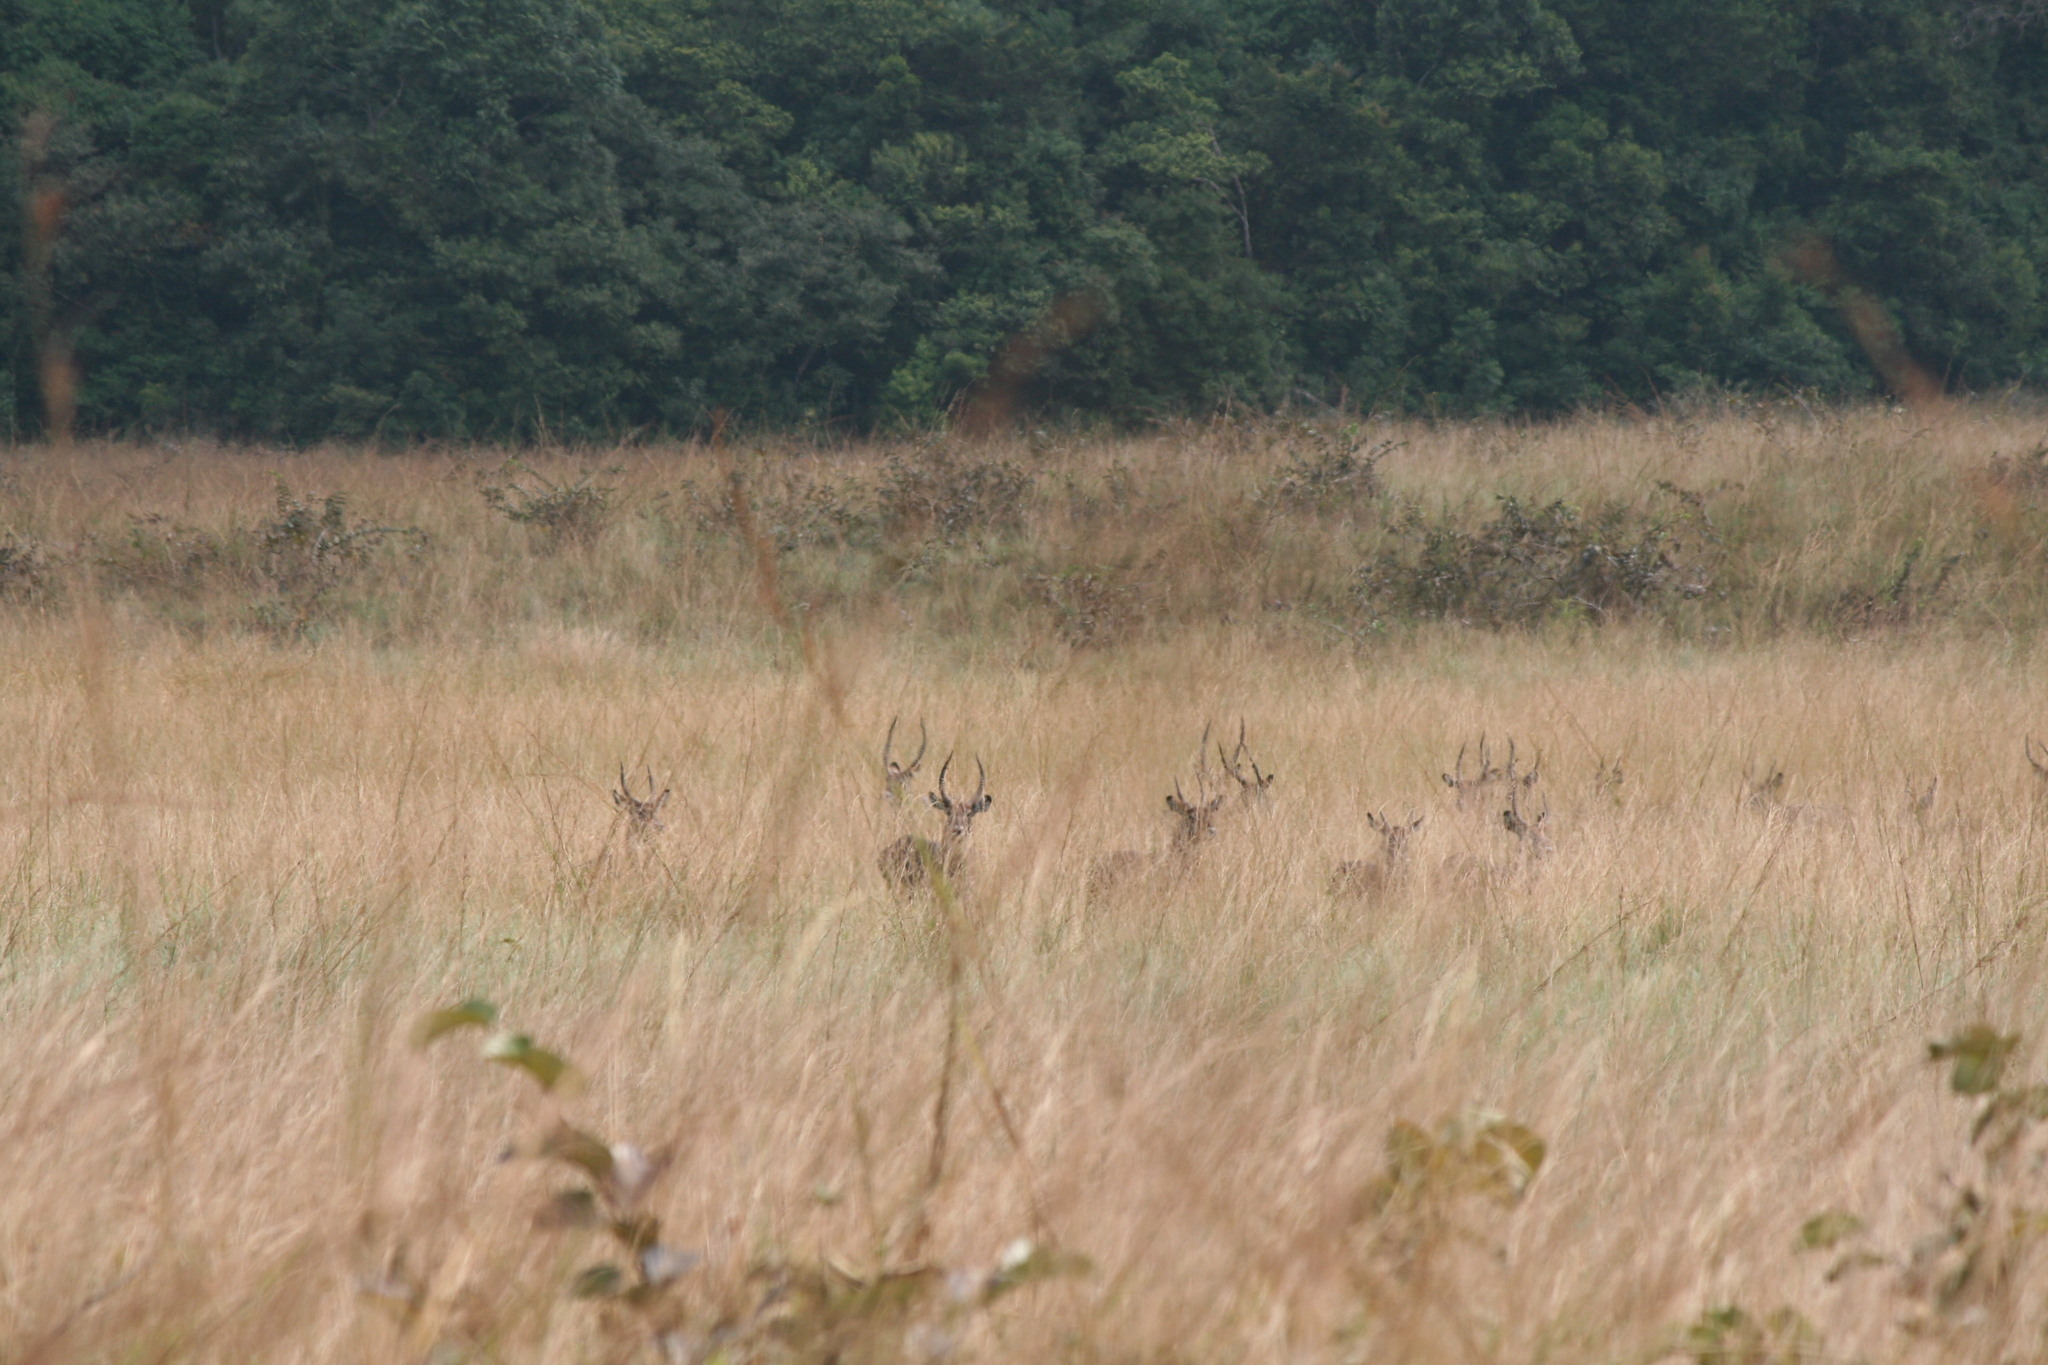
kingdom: Animalia
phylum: Chordata
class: Mammalia
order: Artiodactyla
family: Bovidae
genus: Kobus
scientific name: Kobus ellipsiprymnus
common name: Waterbuck
